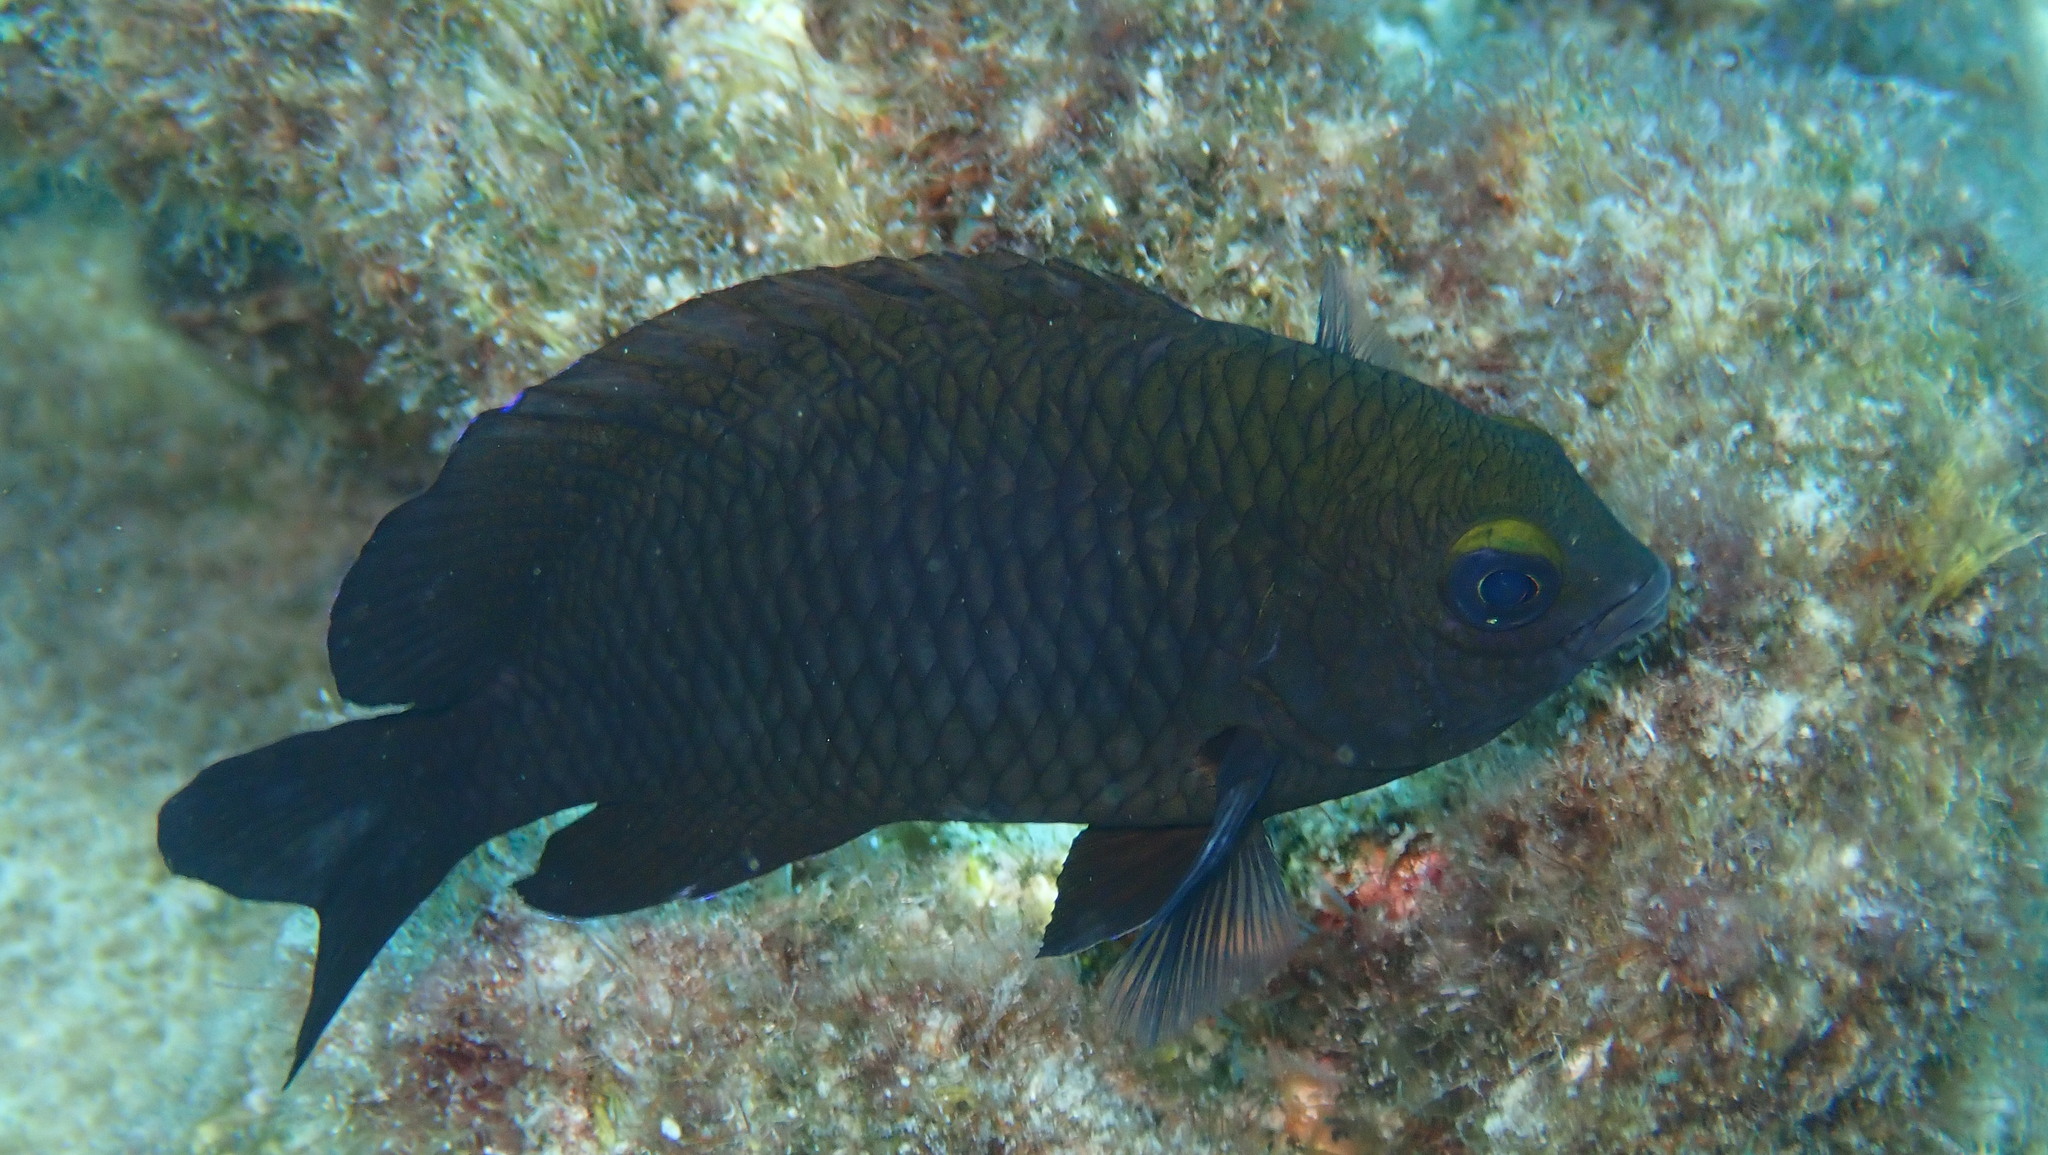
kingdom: Animalia
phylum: Chordata
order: Perciformes
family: Pomacentridae
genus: Stegastes
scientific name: Stegastes diencaeus
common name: Longfin damselfish
